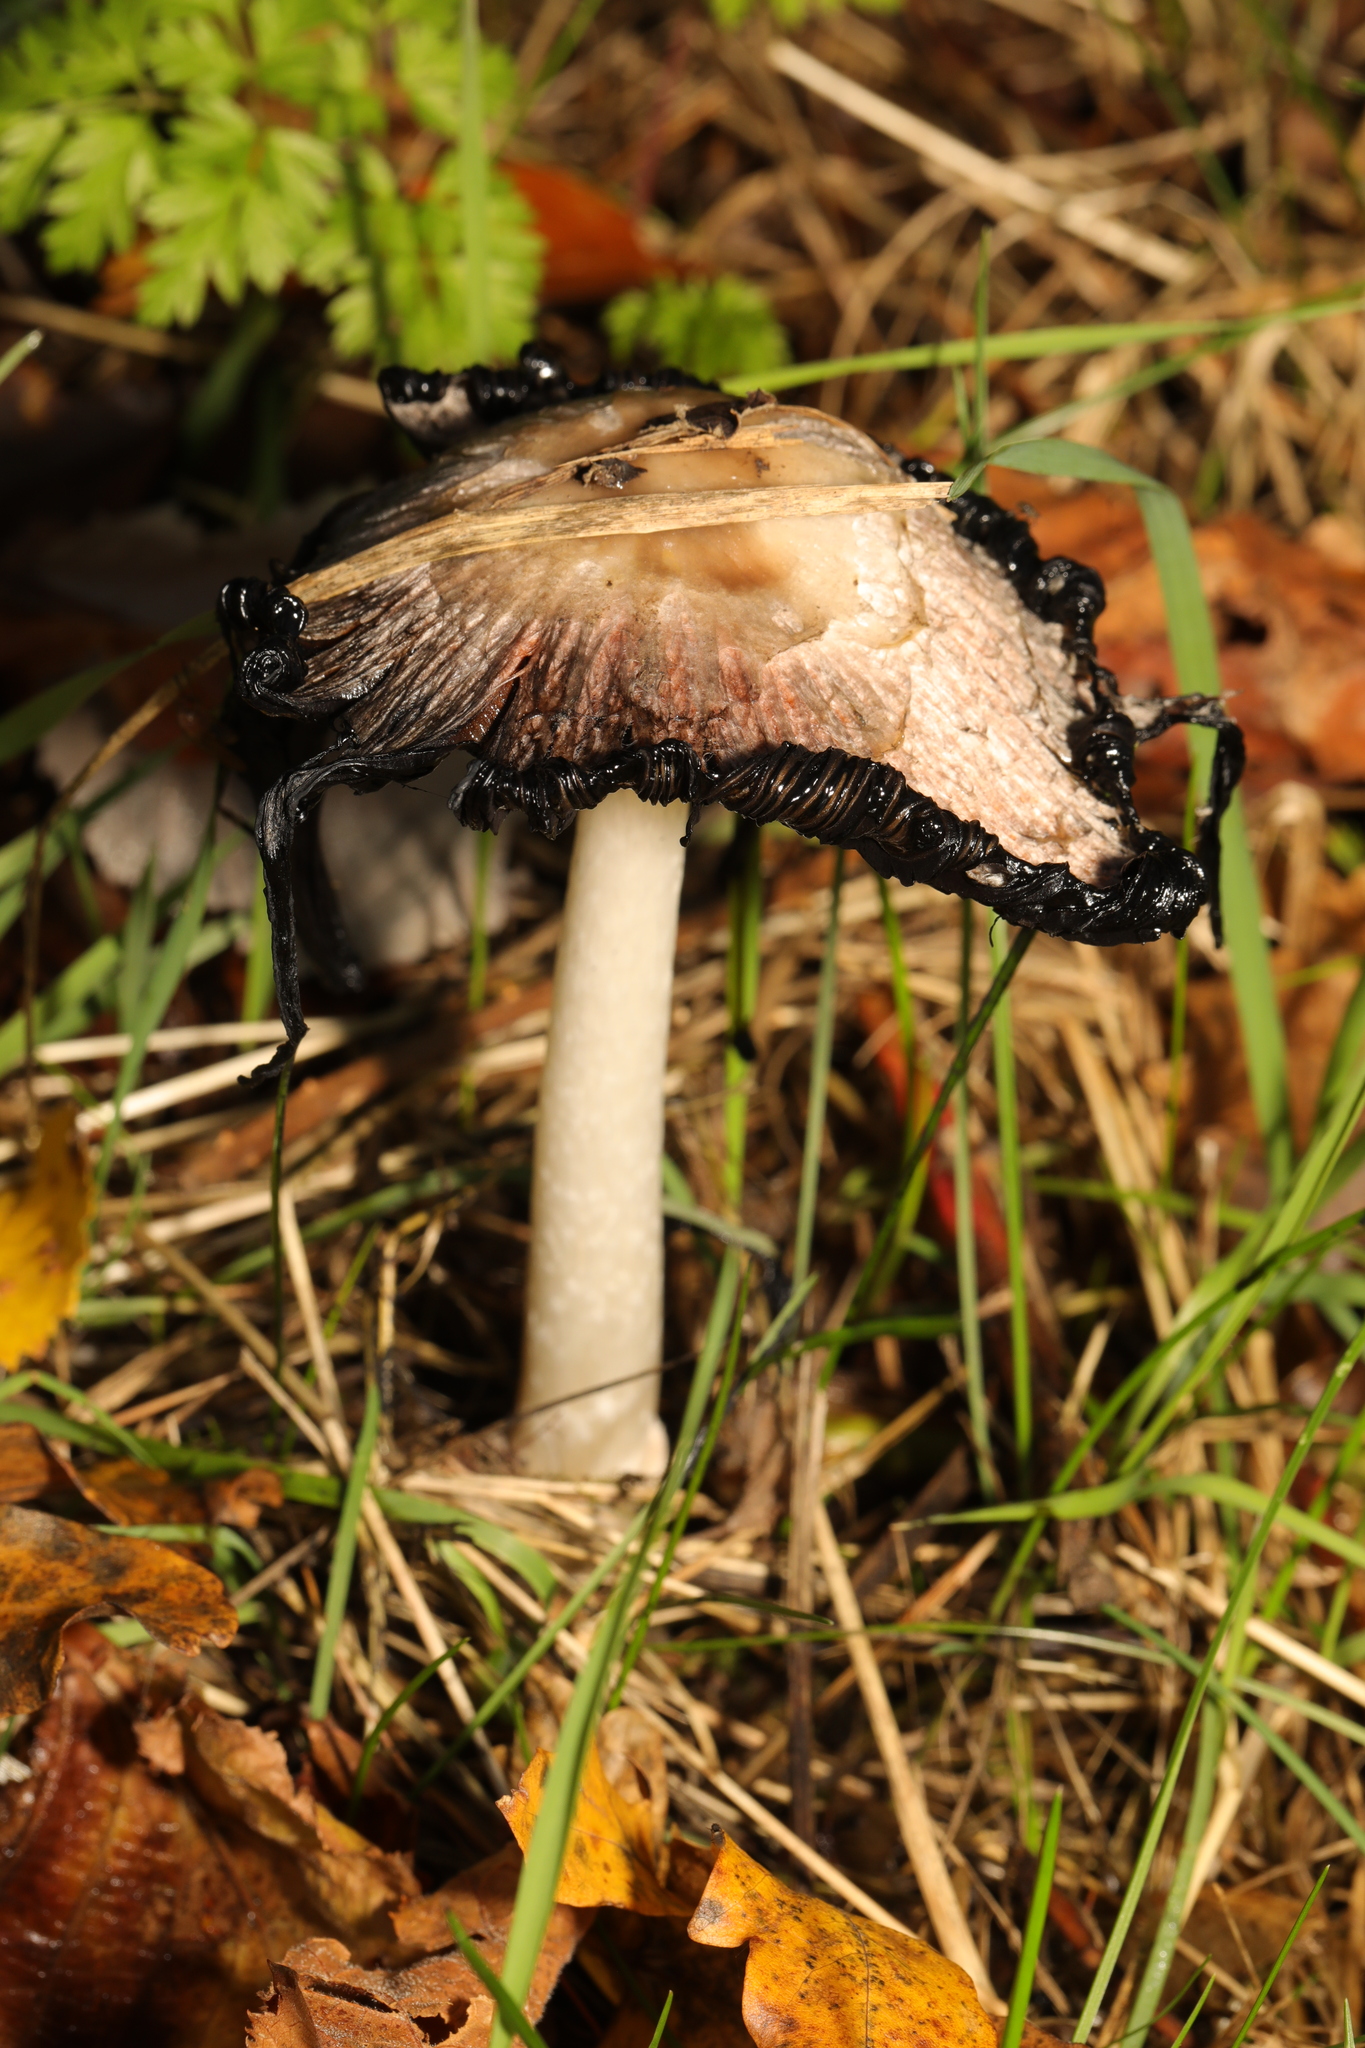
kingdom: Fungi
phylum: Basidiomycota
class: Agaricomycetes
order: Agaricales
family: Agaricaceae
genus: Coprinus
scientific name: Coprinus comatus
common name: Lawyer's wig
